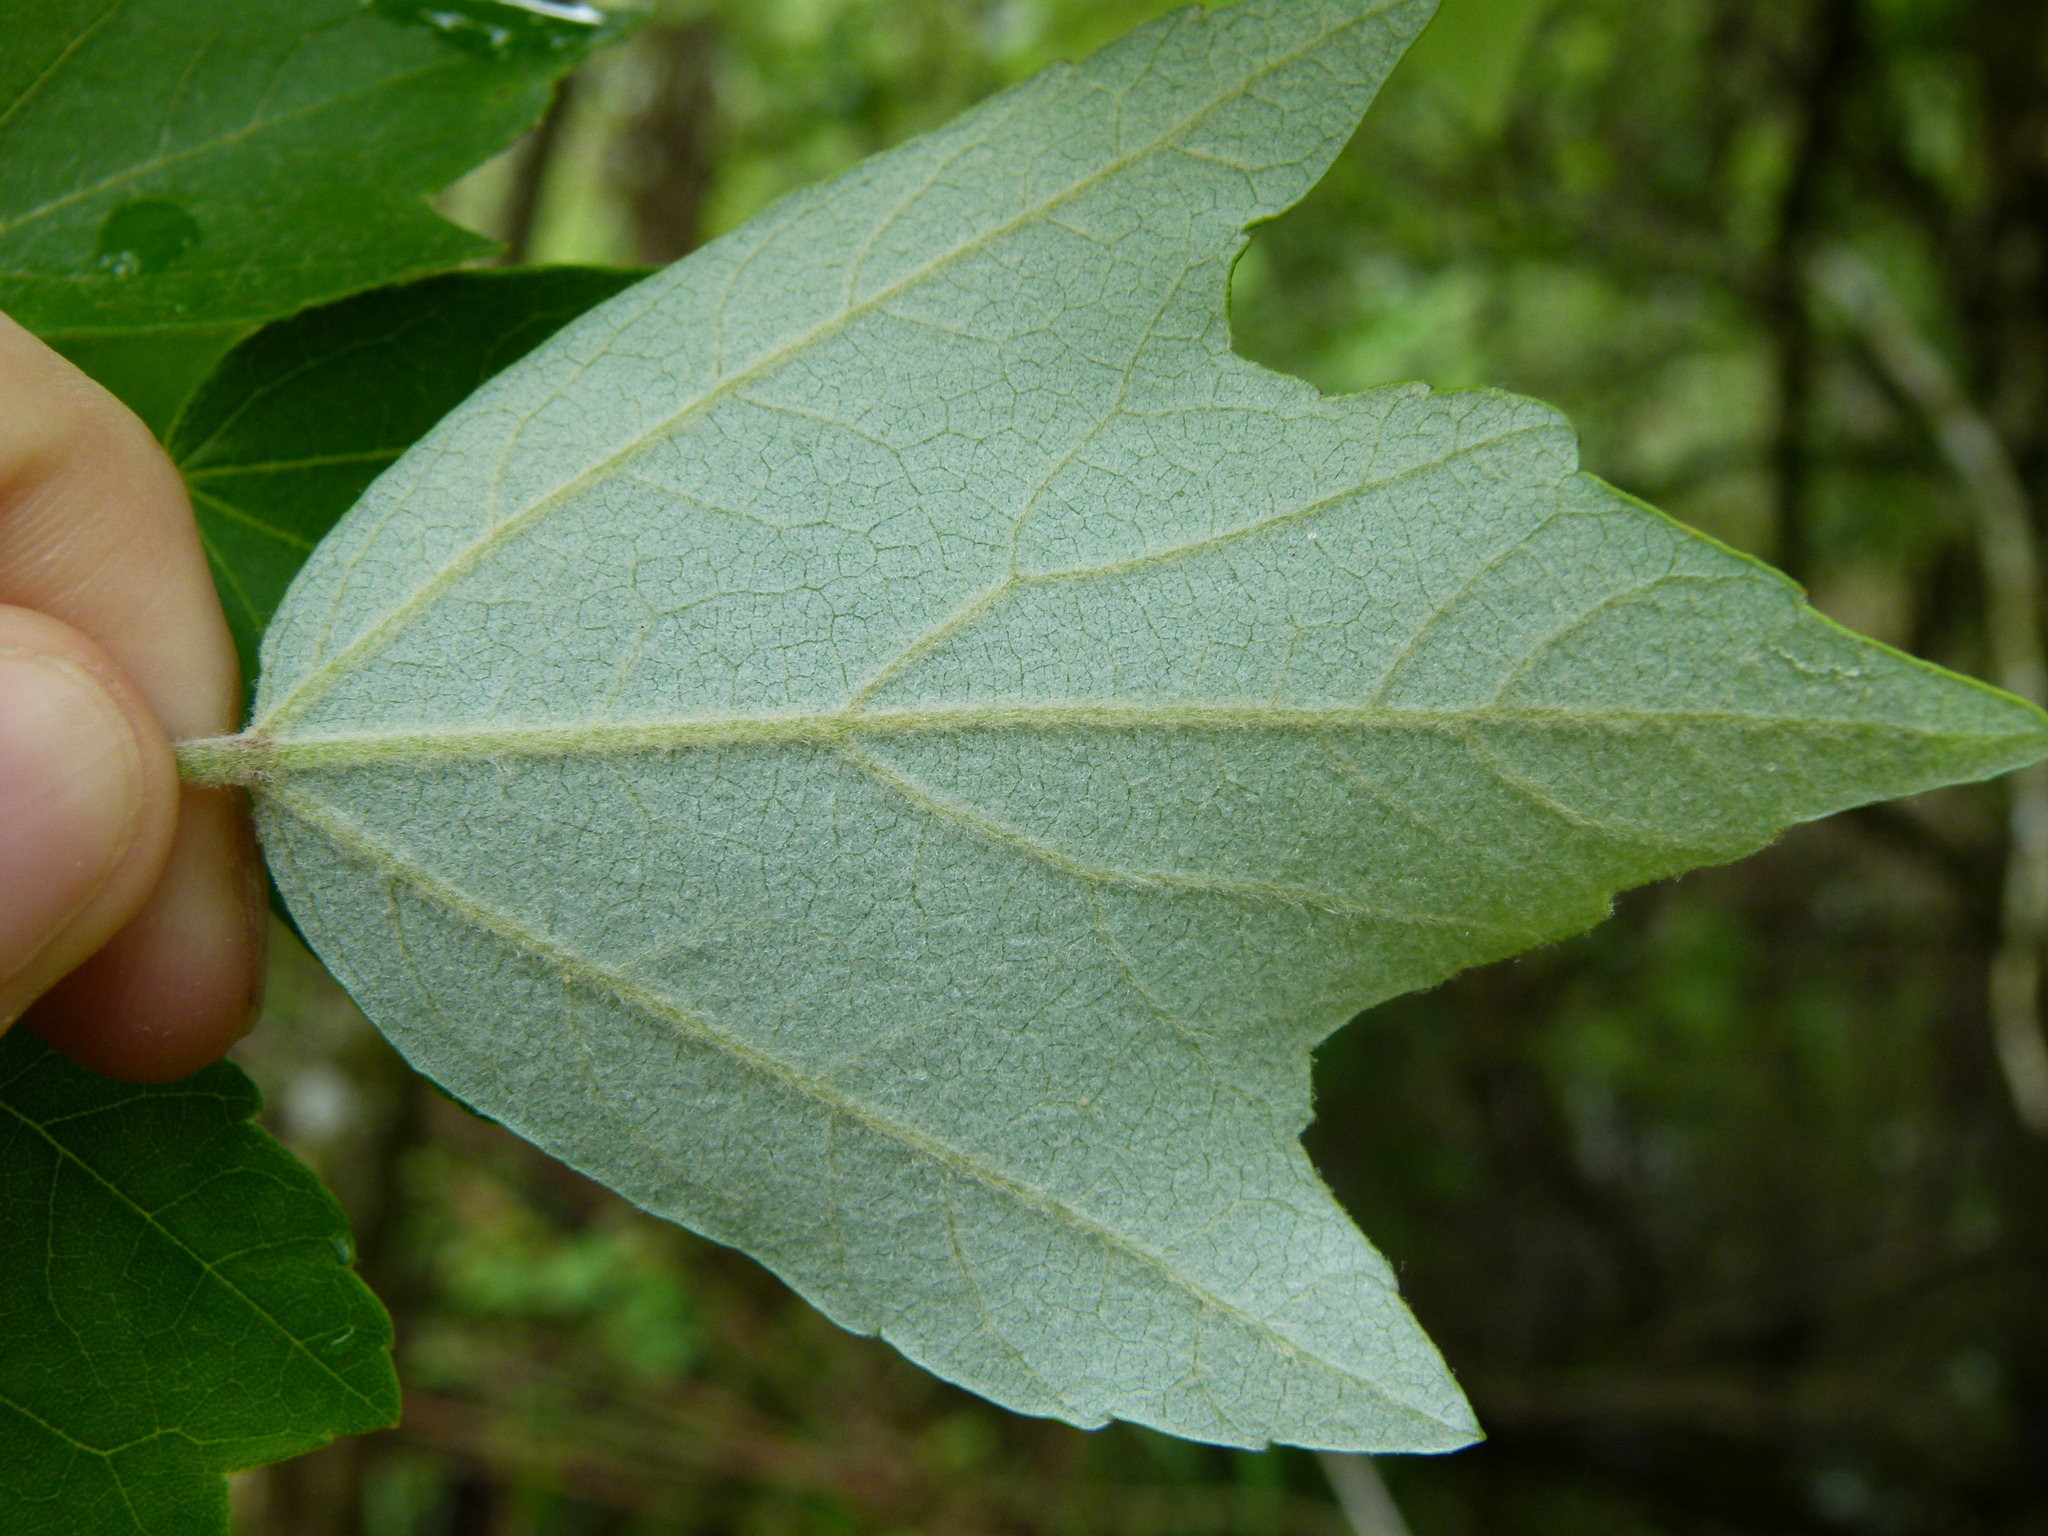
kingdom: Plantae
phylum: Tracheophyta
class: Magnoliopsida
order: Sapindales
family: Sapindaceae
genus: Acer
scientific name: Acer rubrum
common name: Red maple
